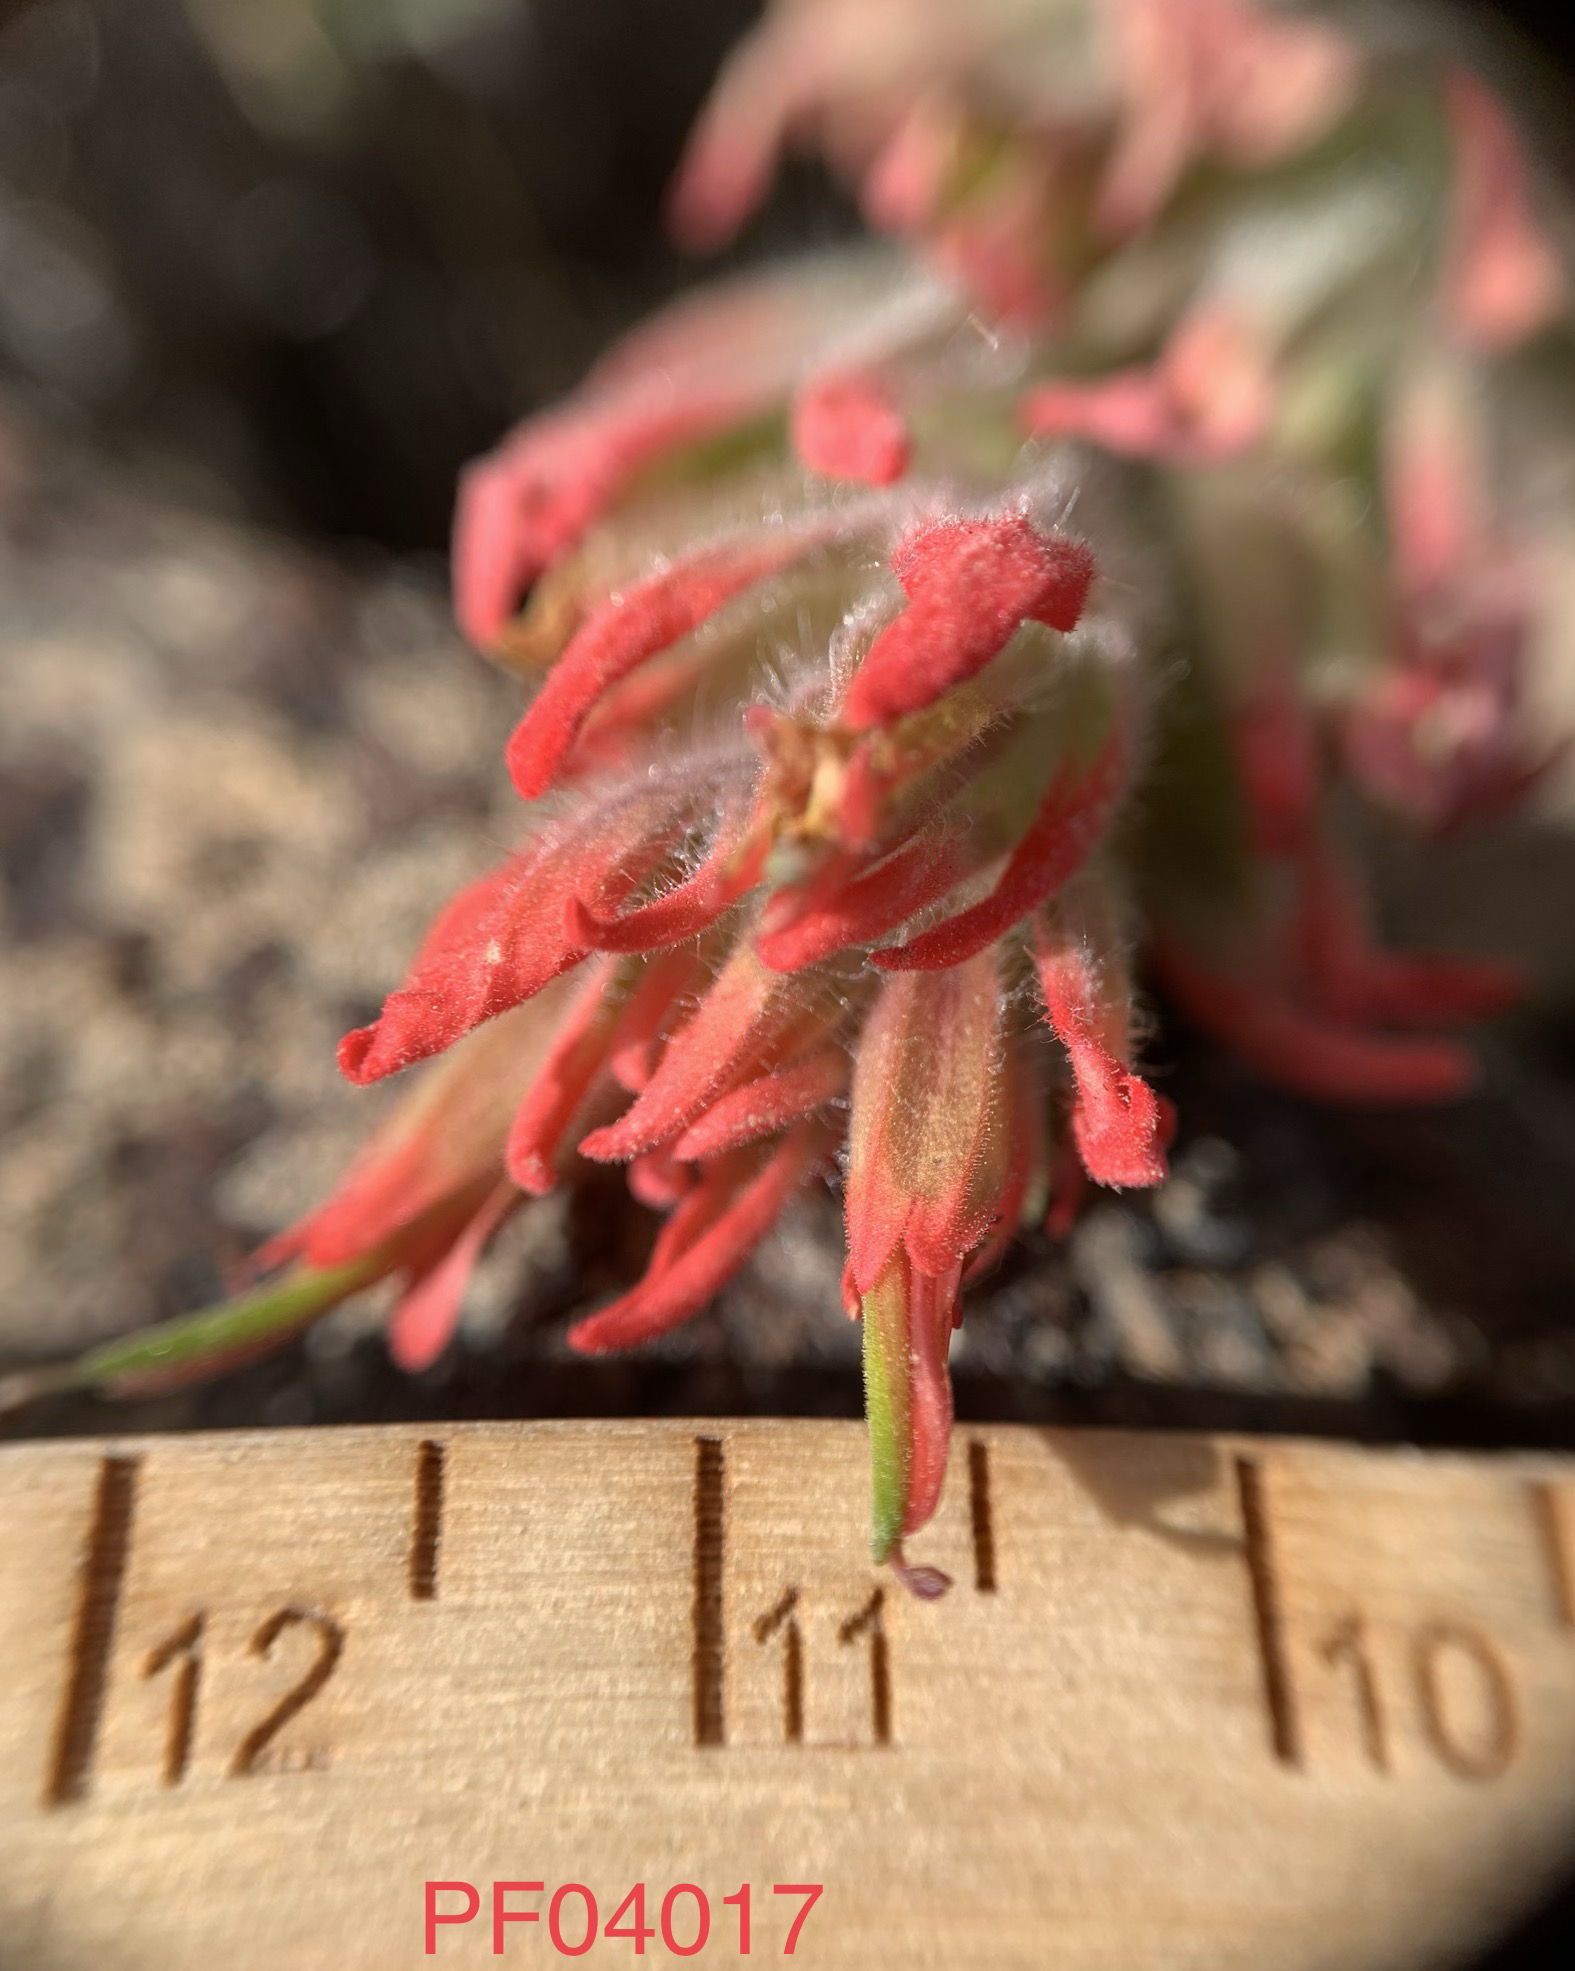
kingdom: Plantae
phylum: Tracheophyta
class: Magnoliopsida
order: Lamiales
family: Orobanchaceae
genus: Castilleja
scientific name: Castilleja chromosa
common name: Desert paintbrush
